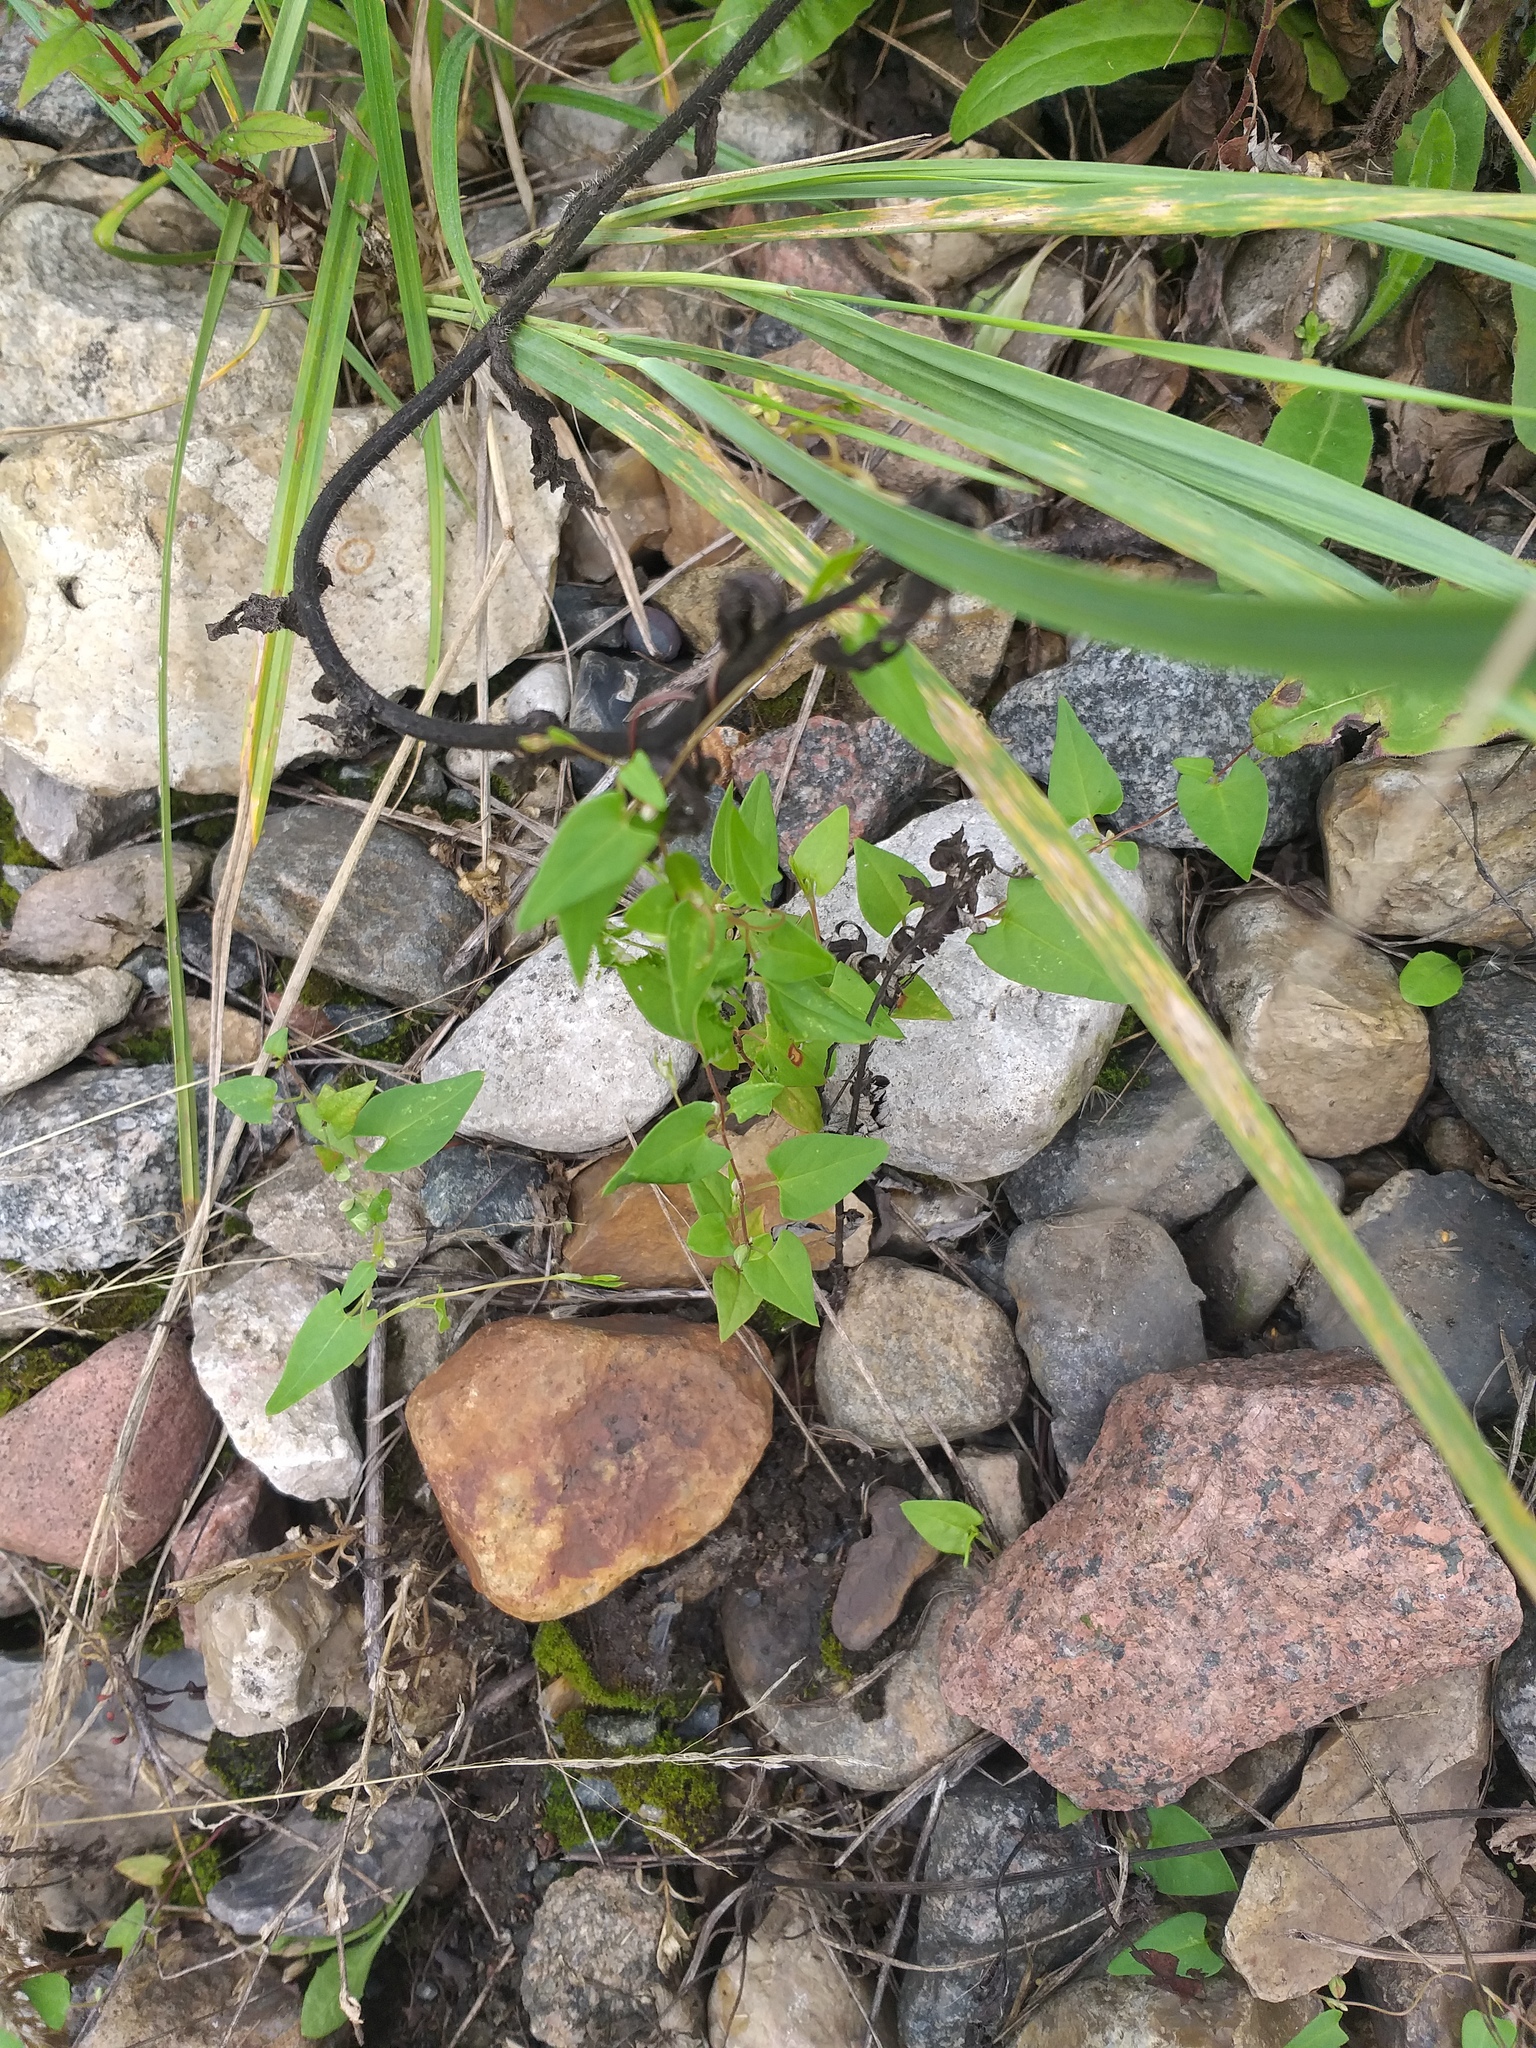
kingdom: Plantae
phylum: Tracheophyta
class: Magnoliopsida
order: Caryophyllales
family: Polygonaceae
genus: Fallopia
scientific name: Fallopia convolvulus
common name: Black bindweed
